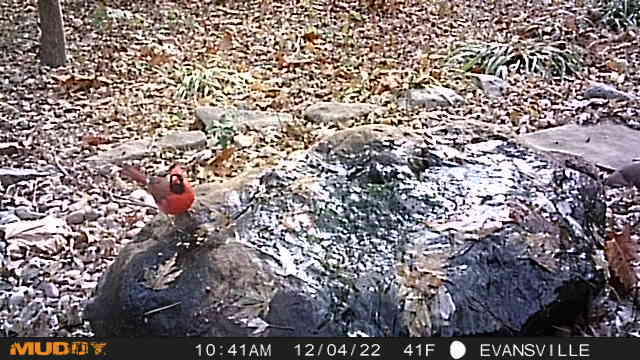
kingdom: Animalia
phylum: Chordata
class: Aves
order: Passeriformes
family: Cardinalidae
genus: Cardinalis
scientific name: Cardinalis cardinalis
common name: Northern cardinal
